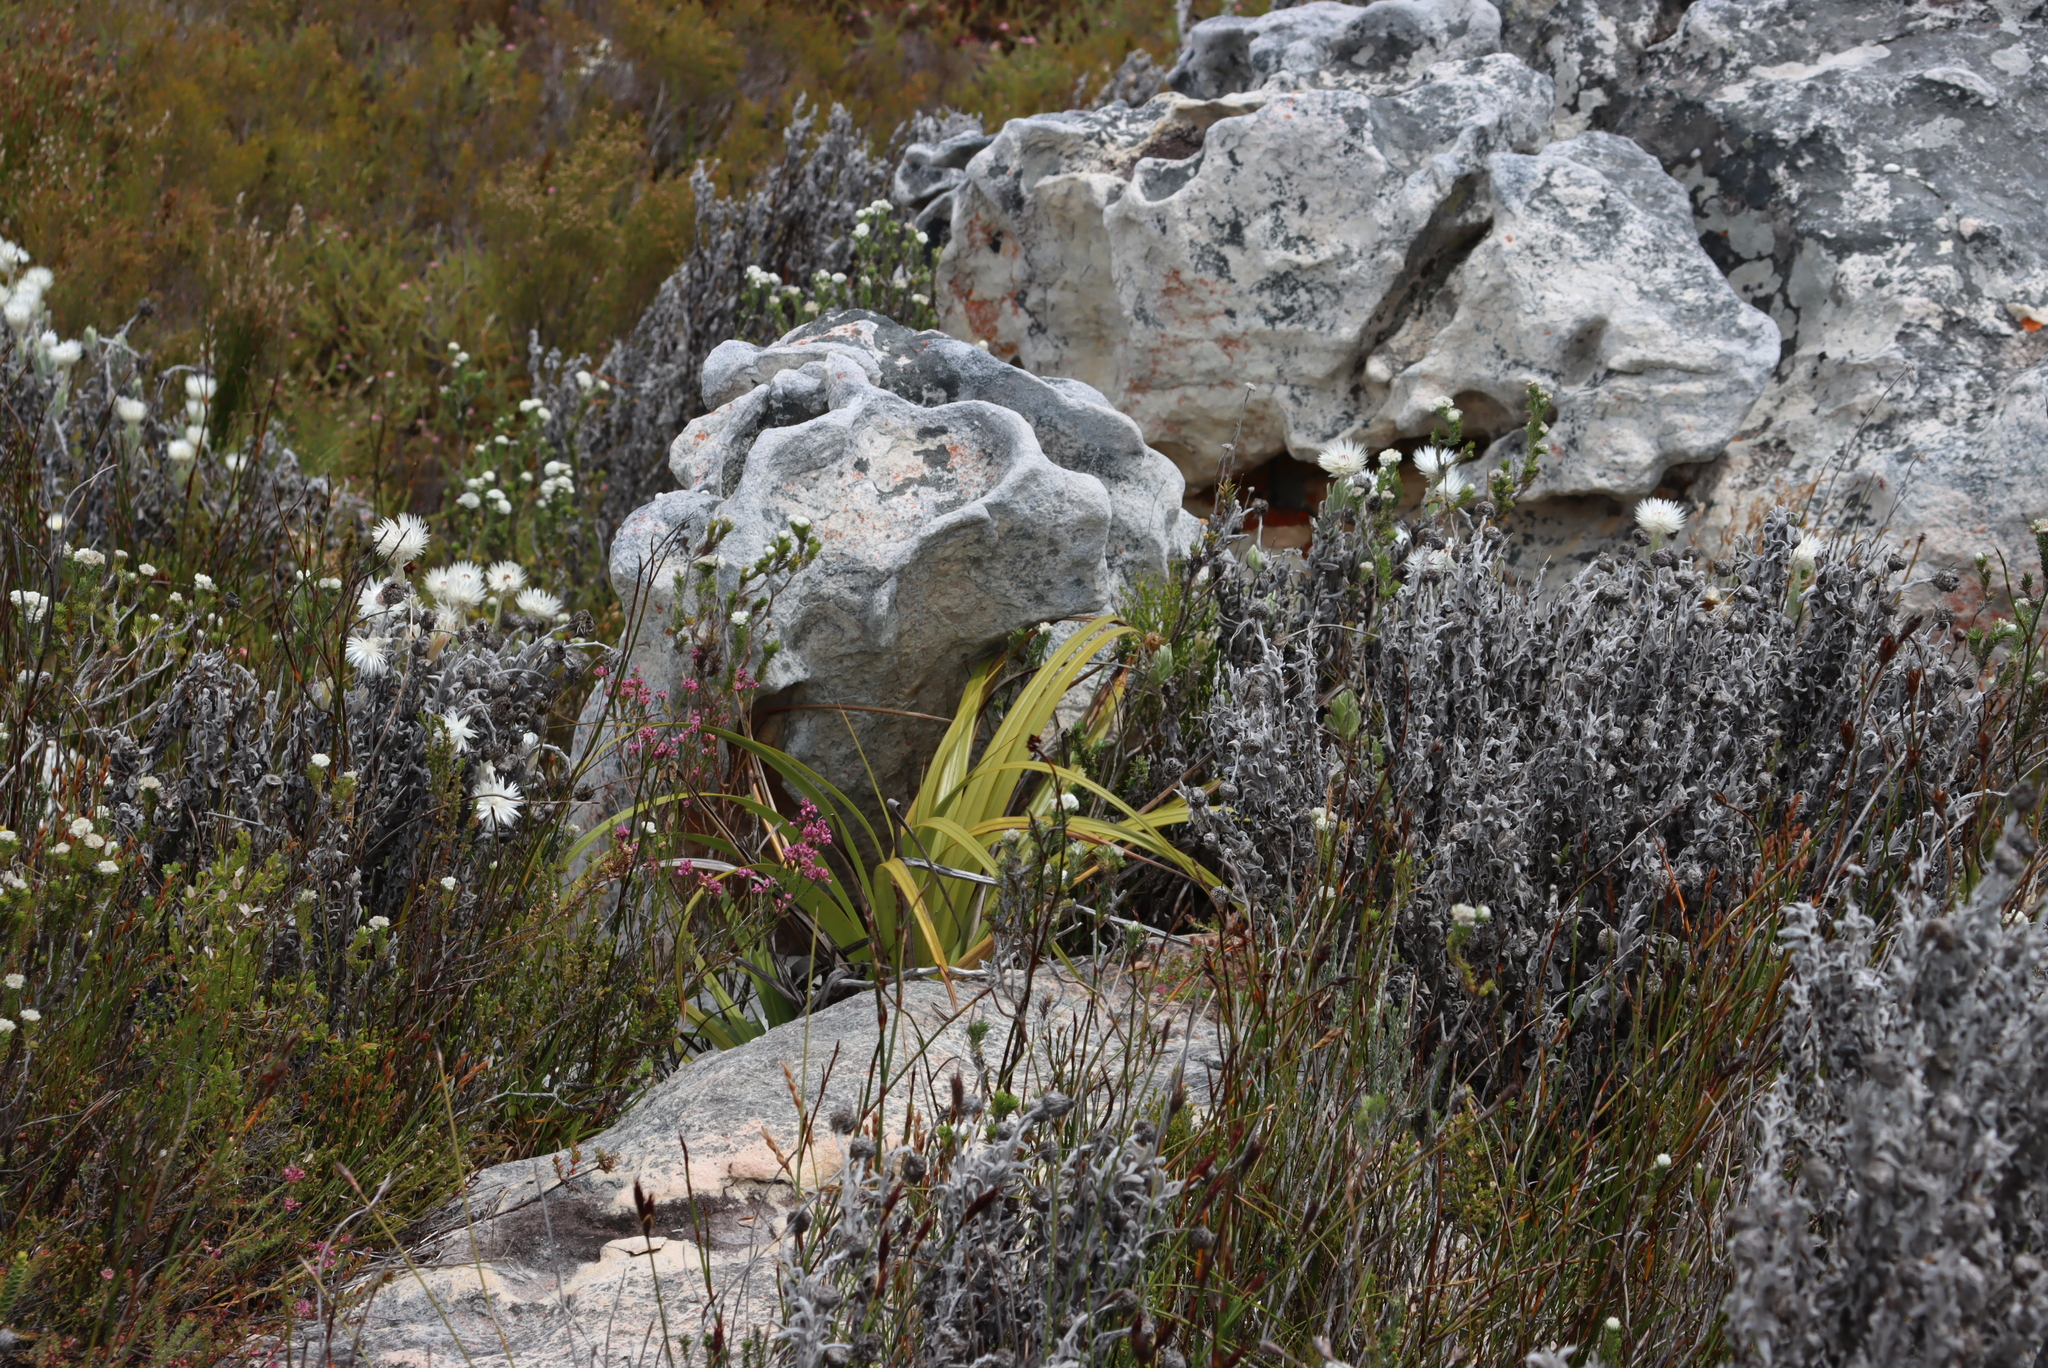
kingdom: Plantae
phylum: Tracheophyta
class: Liliopsida
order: Poales
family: Cyperaceae
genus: Tetraria
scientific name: Tetraria thermalis
